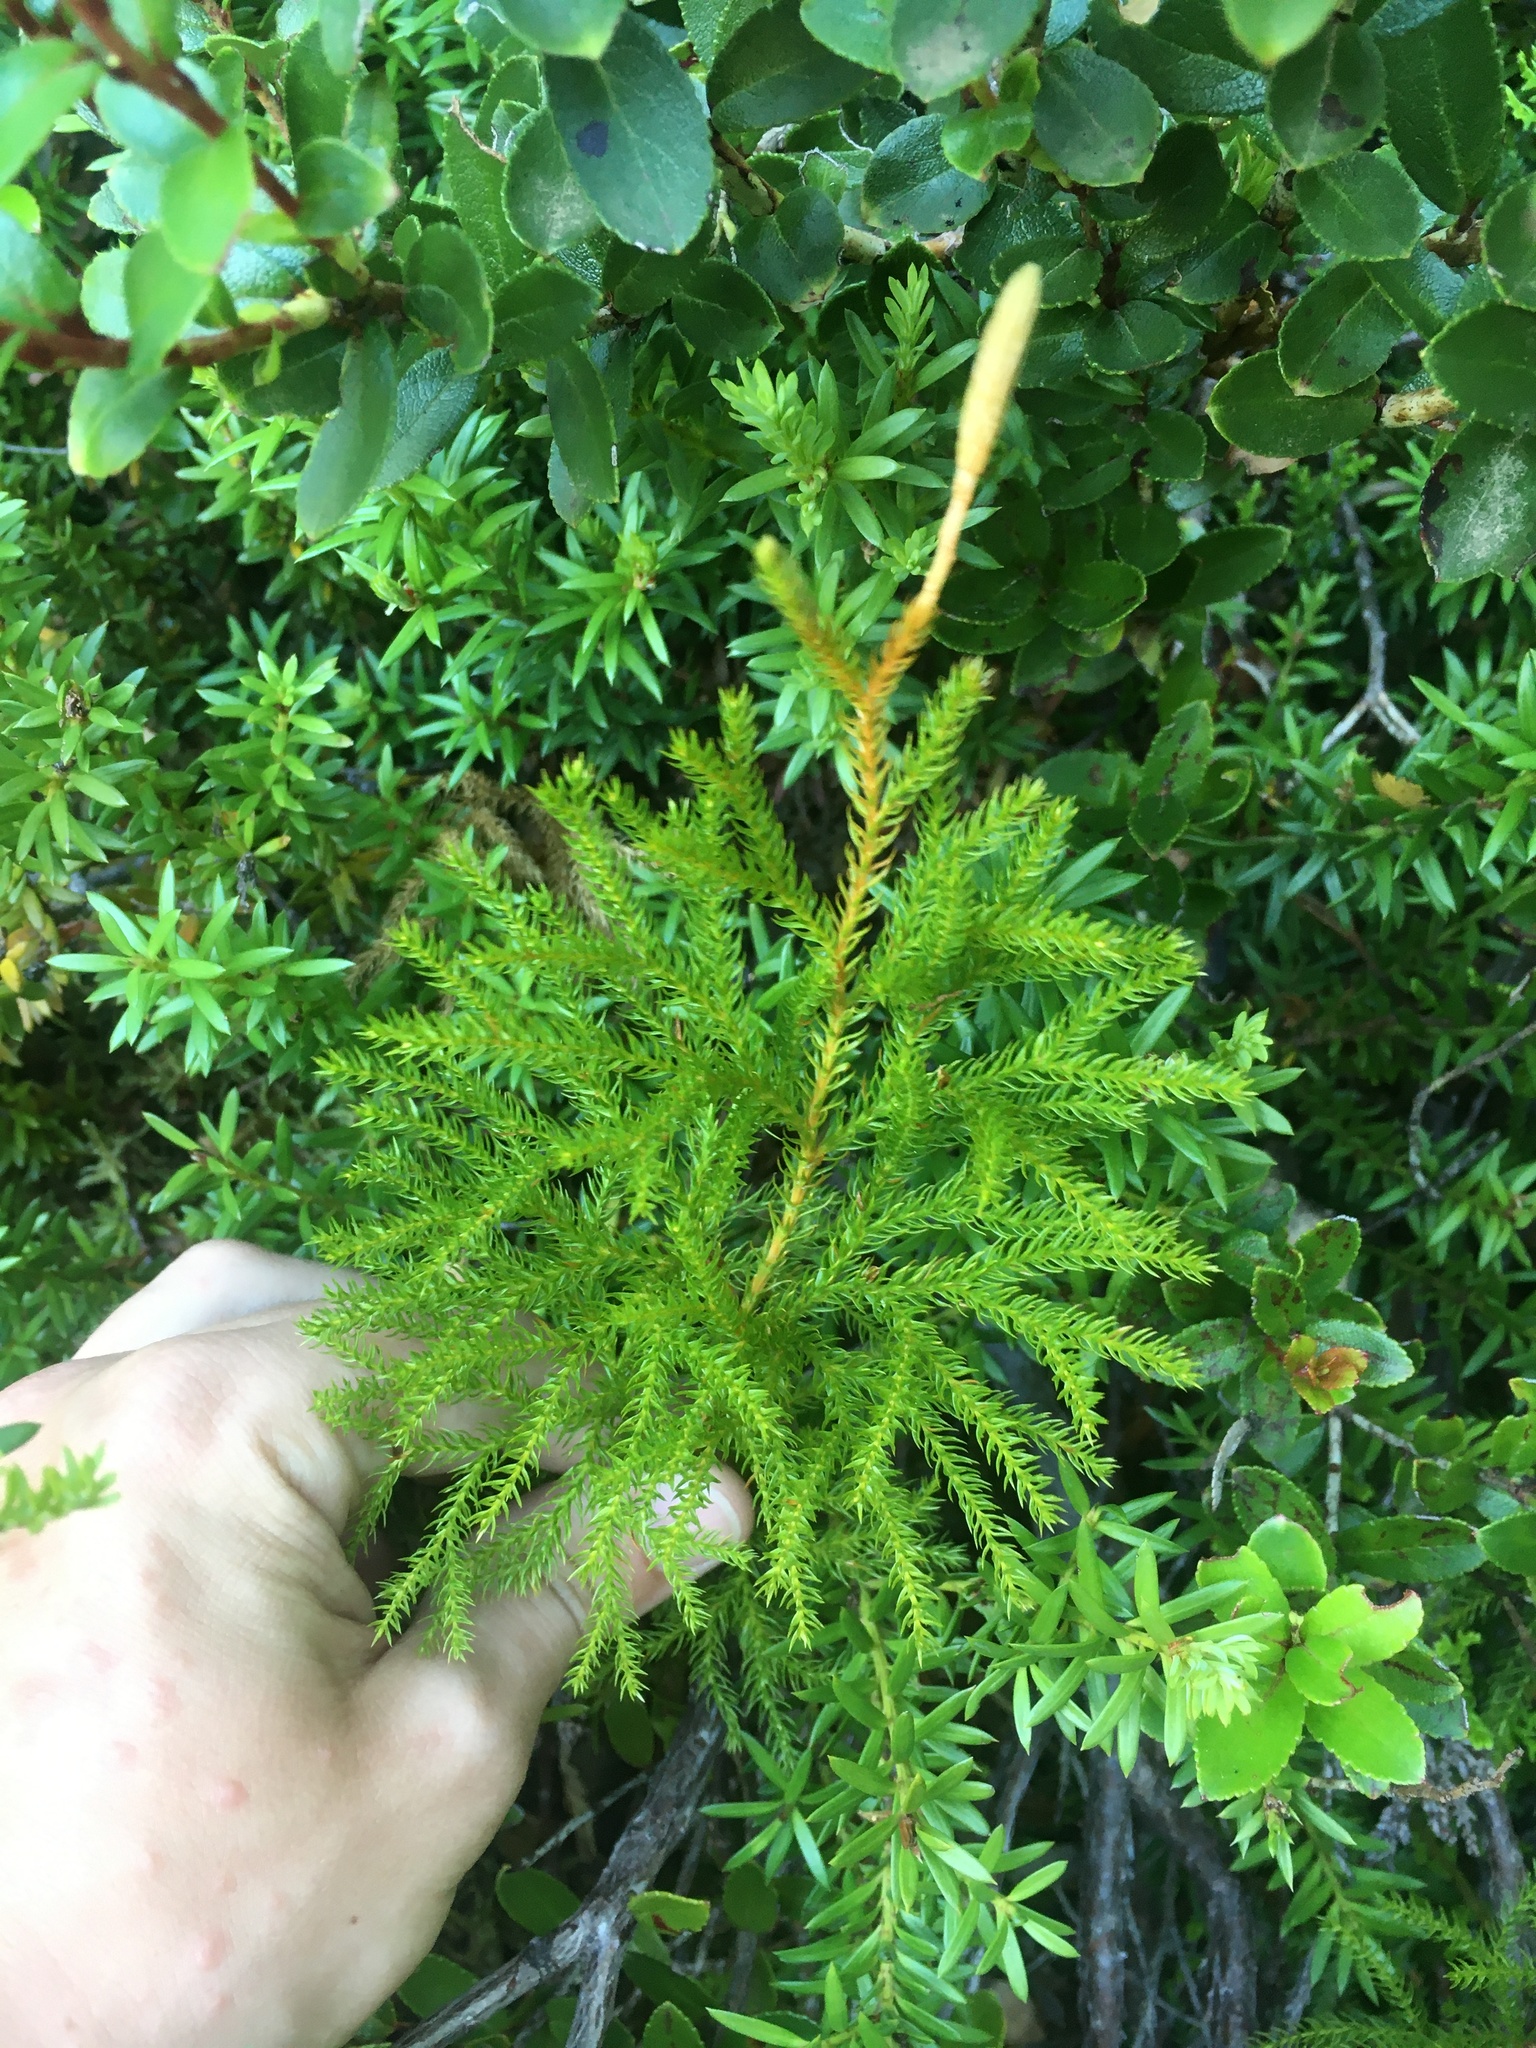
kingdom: Plantae
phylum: Tracheophyta
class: Lycopodiopsida
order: Lycopodiales
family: Lycopodiaceae
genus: Austrolycopodium
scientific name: Austrolycopodium fastigiatum
